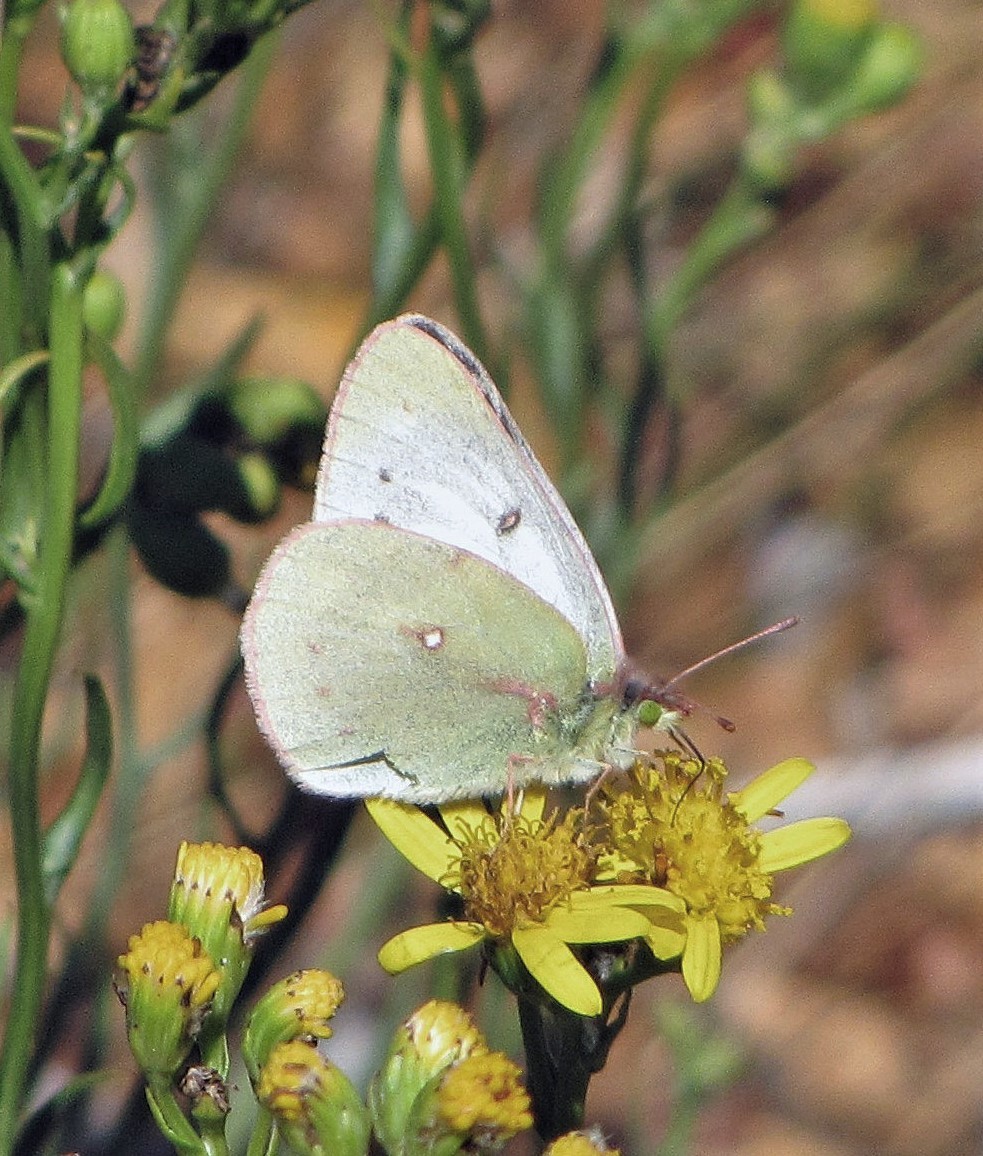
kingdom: Animalia
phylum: Arthropoda
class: Insecta
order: Lepidoptera
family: Pieridae
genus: Colias
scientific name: Colias vauthierii
